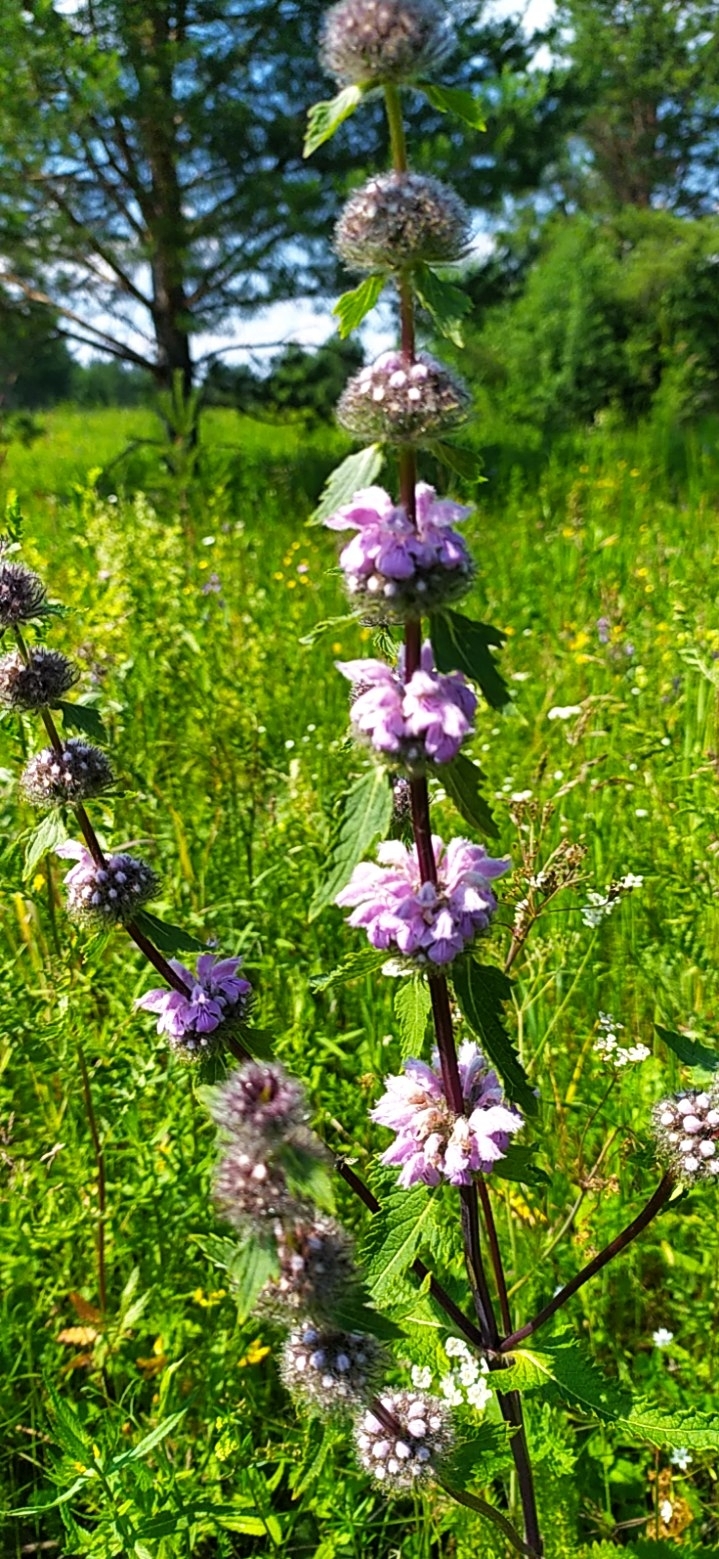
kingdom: Plantae
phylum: Tracheophyta
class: Magnoliopsida
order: Lamiales
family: Lamiaceae
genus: Phlomoides
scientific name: Phlomoides tuberosa
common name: Tuberous jerusalem sage
